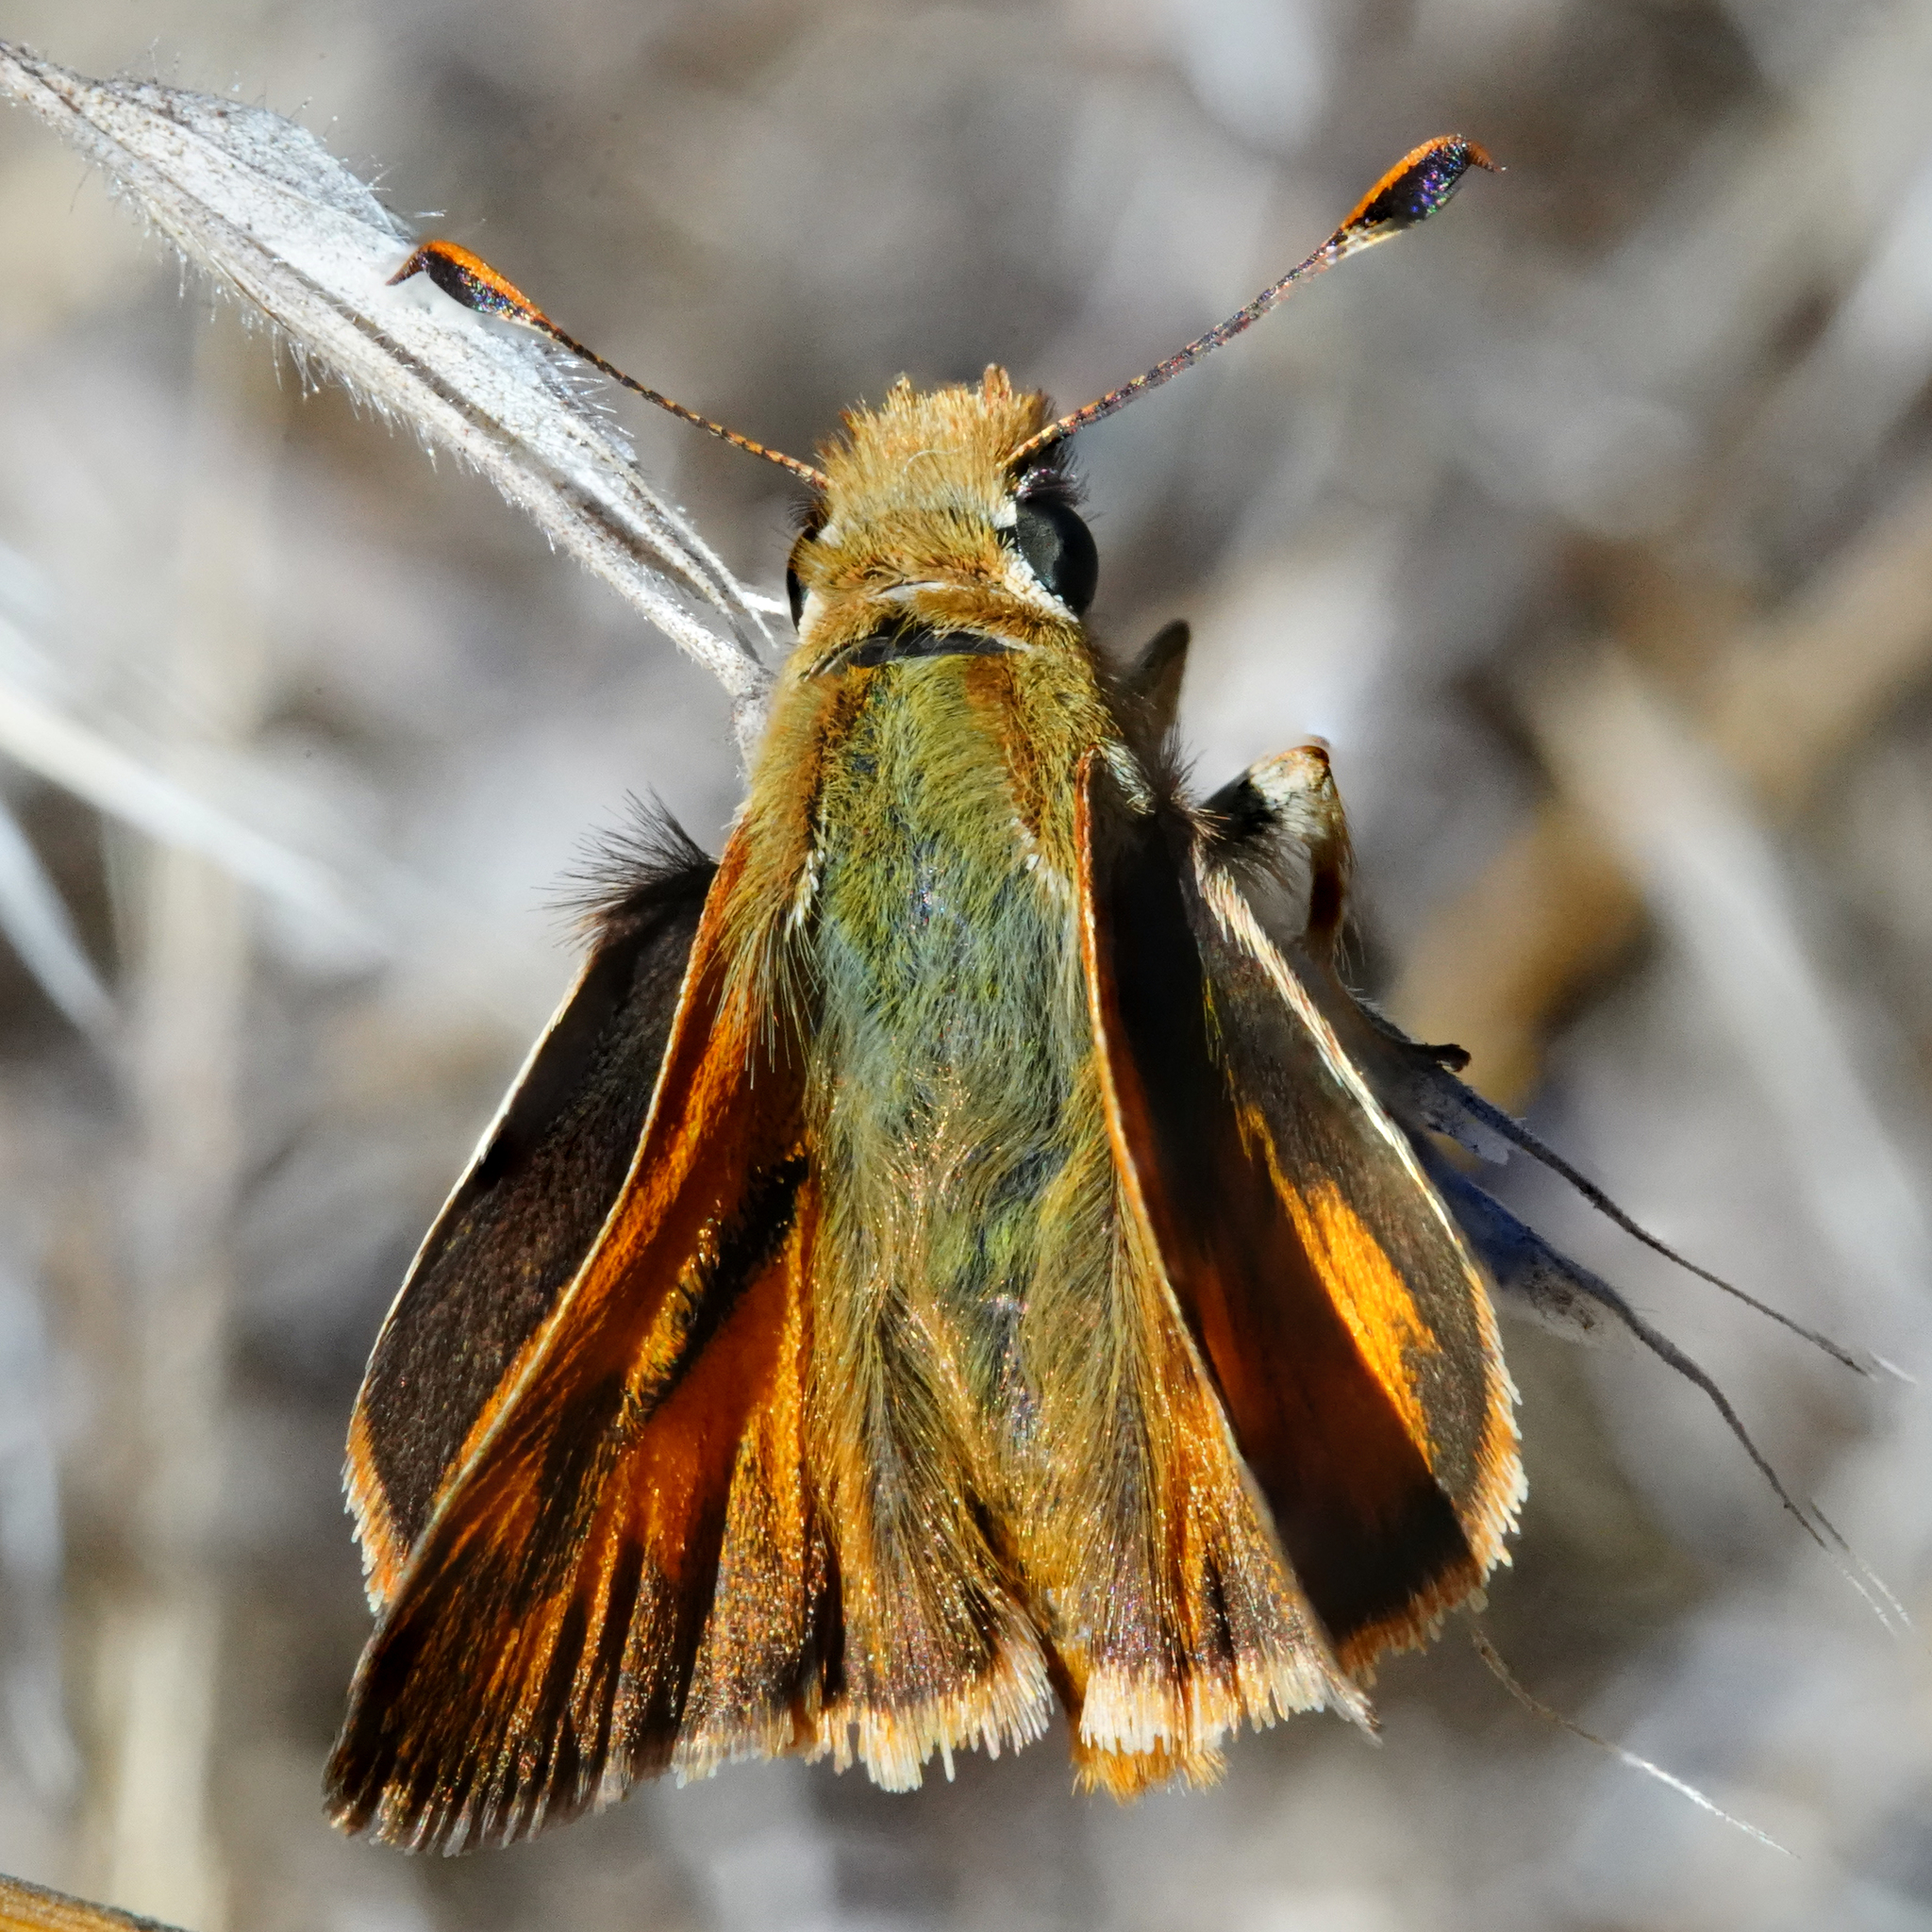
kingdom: Animalia
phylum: Arthropoda
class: Insecta
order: Lepidoptera
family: Hesperiidae
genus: Ochlodes
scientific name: Ochlodes sylvanoides
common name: Woodland skipper
